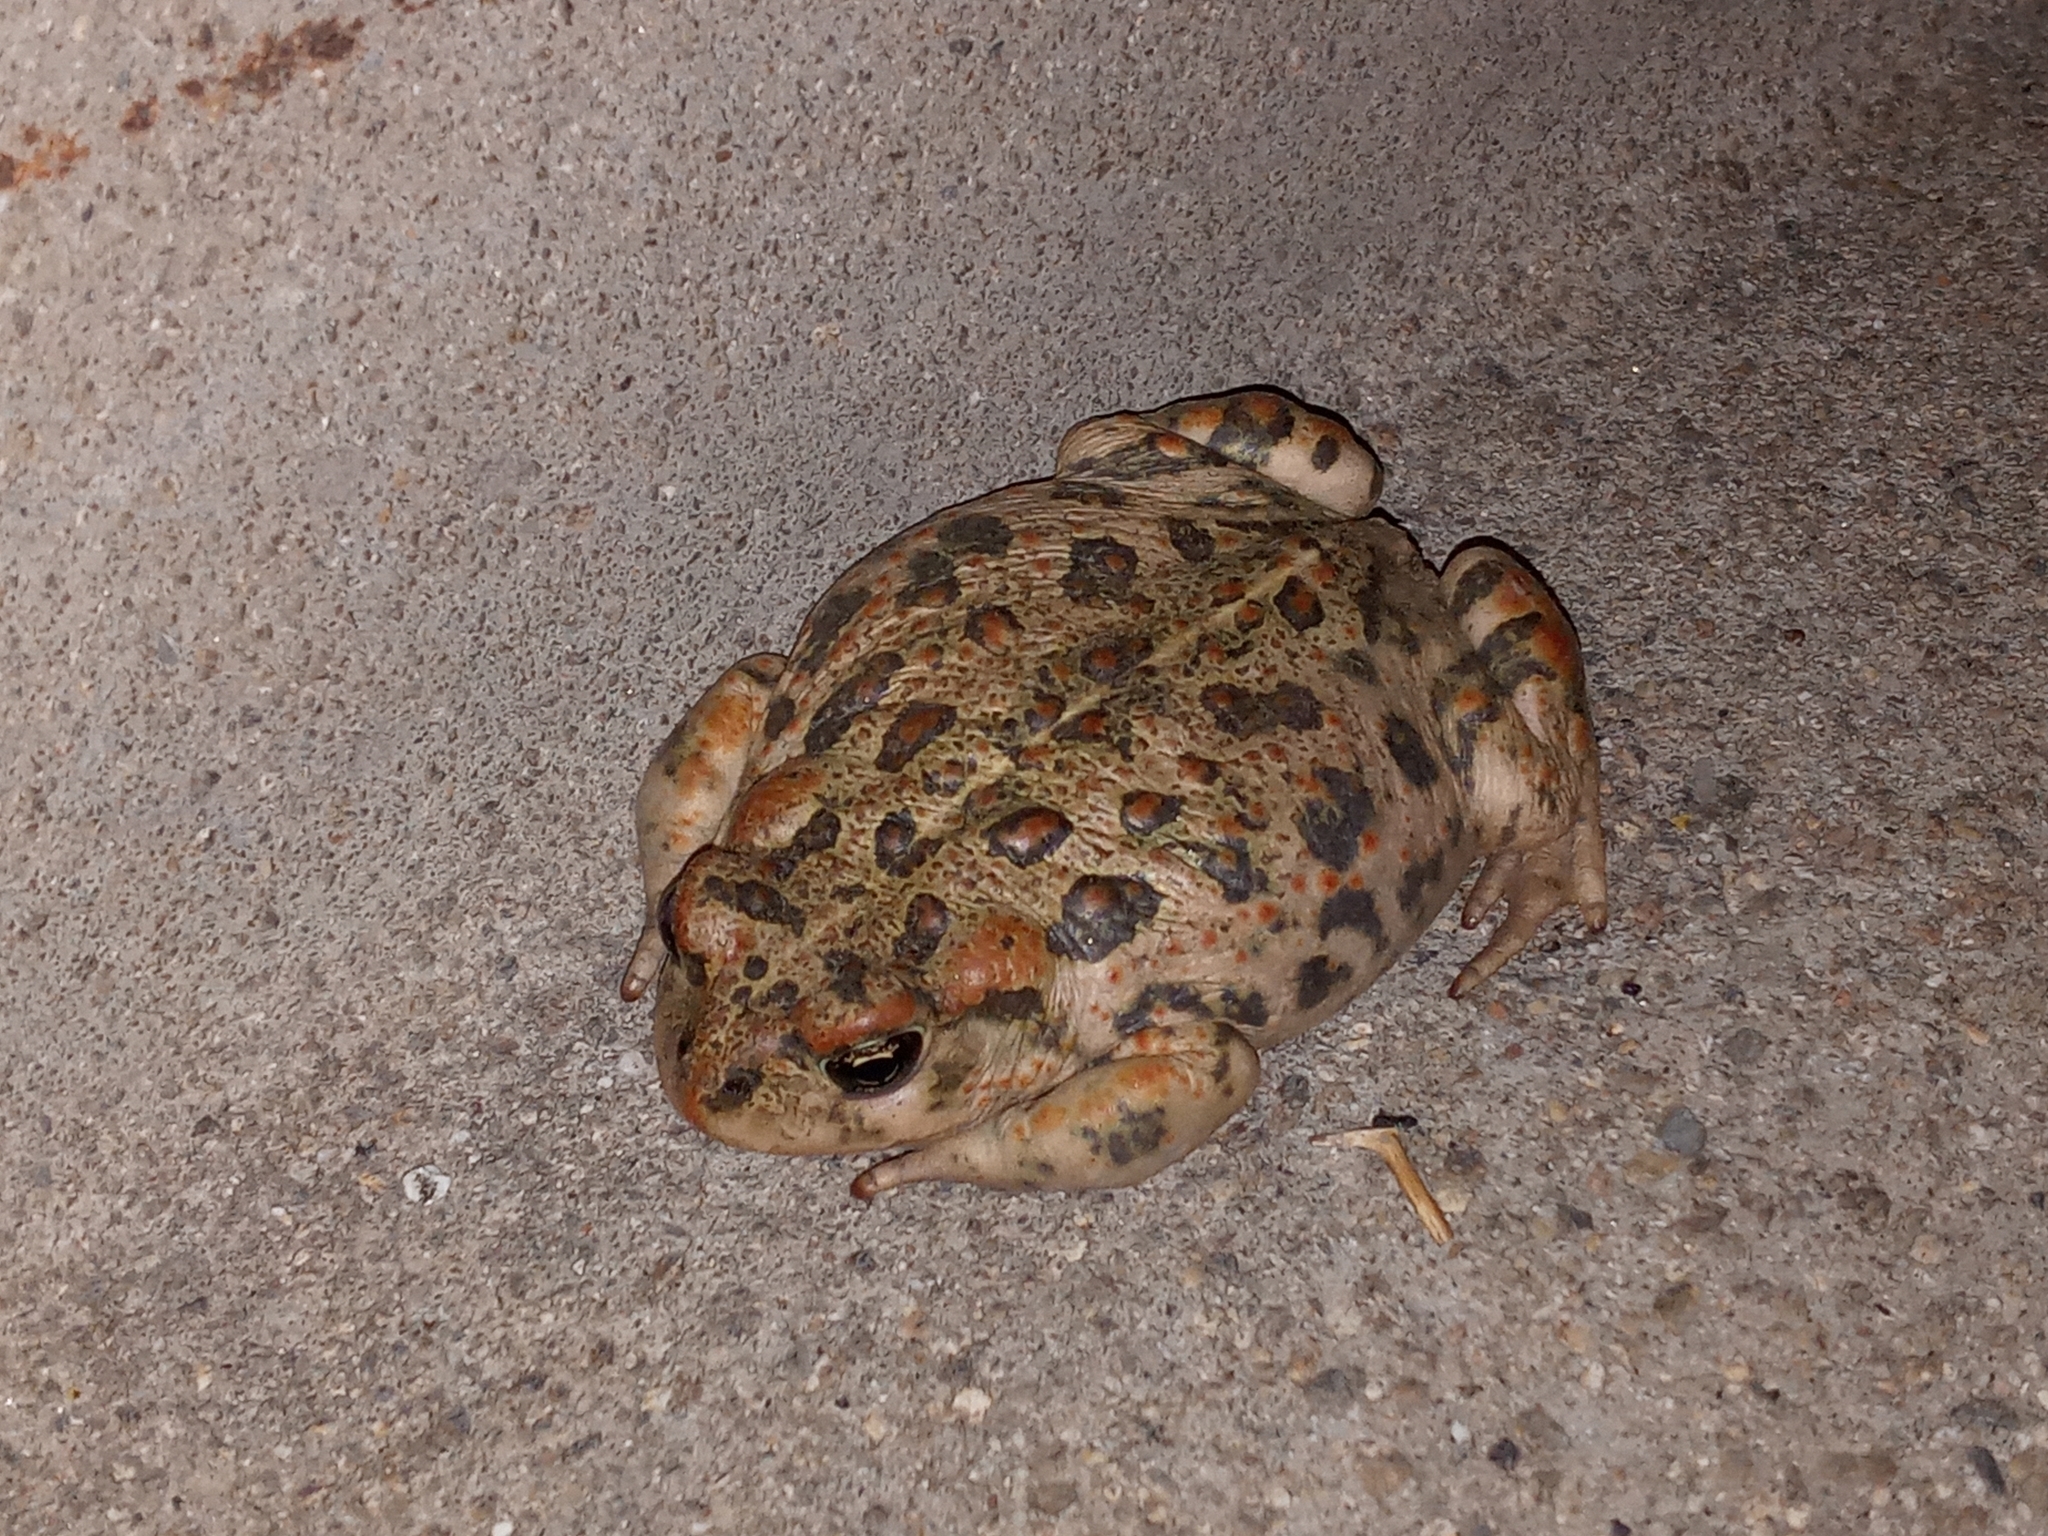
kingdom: Animalia
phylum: Chordata
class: Amphibia
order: Anura
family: Bufonidae
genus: Anaxyrus
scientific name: Anaxyrus boreas
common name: Western toad
